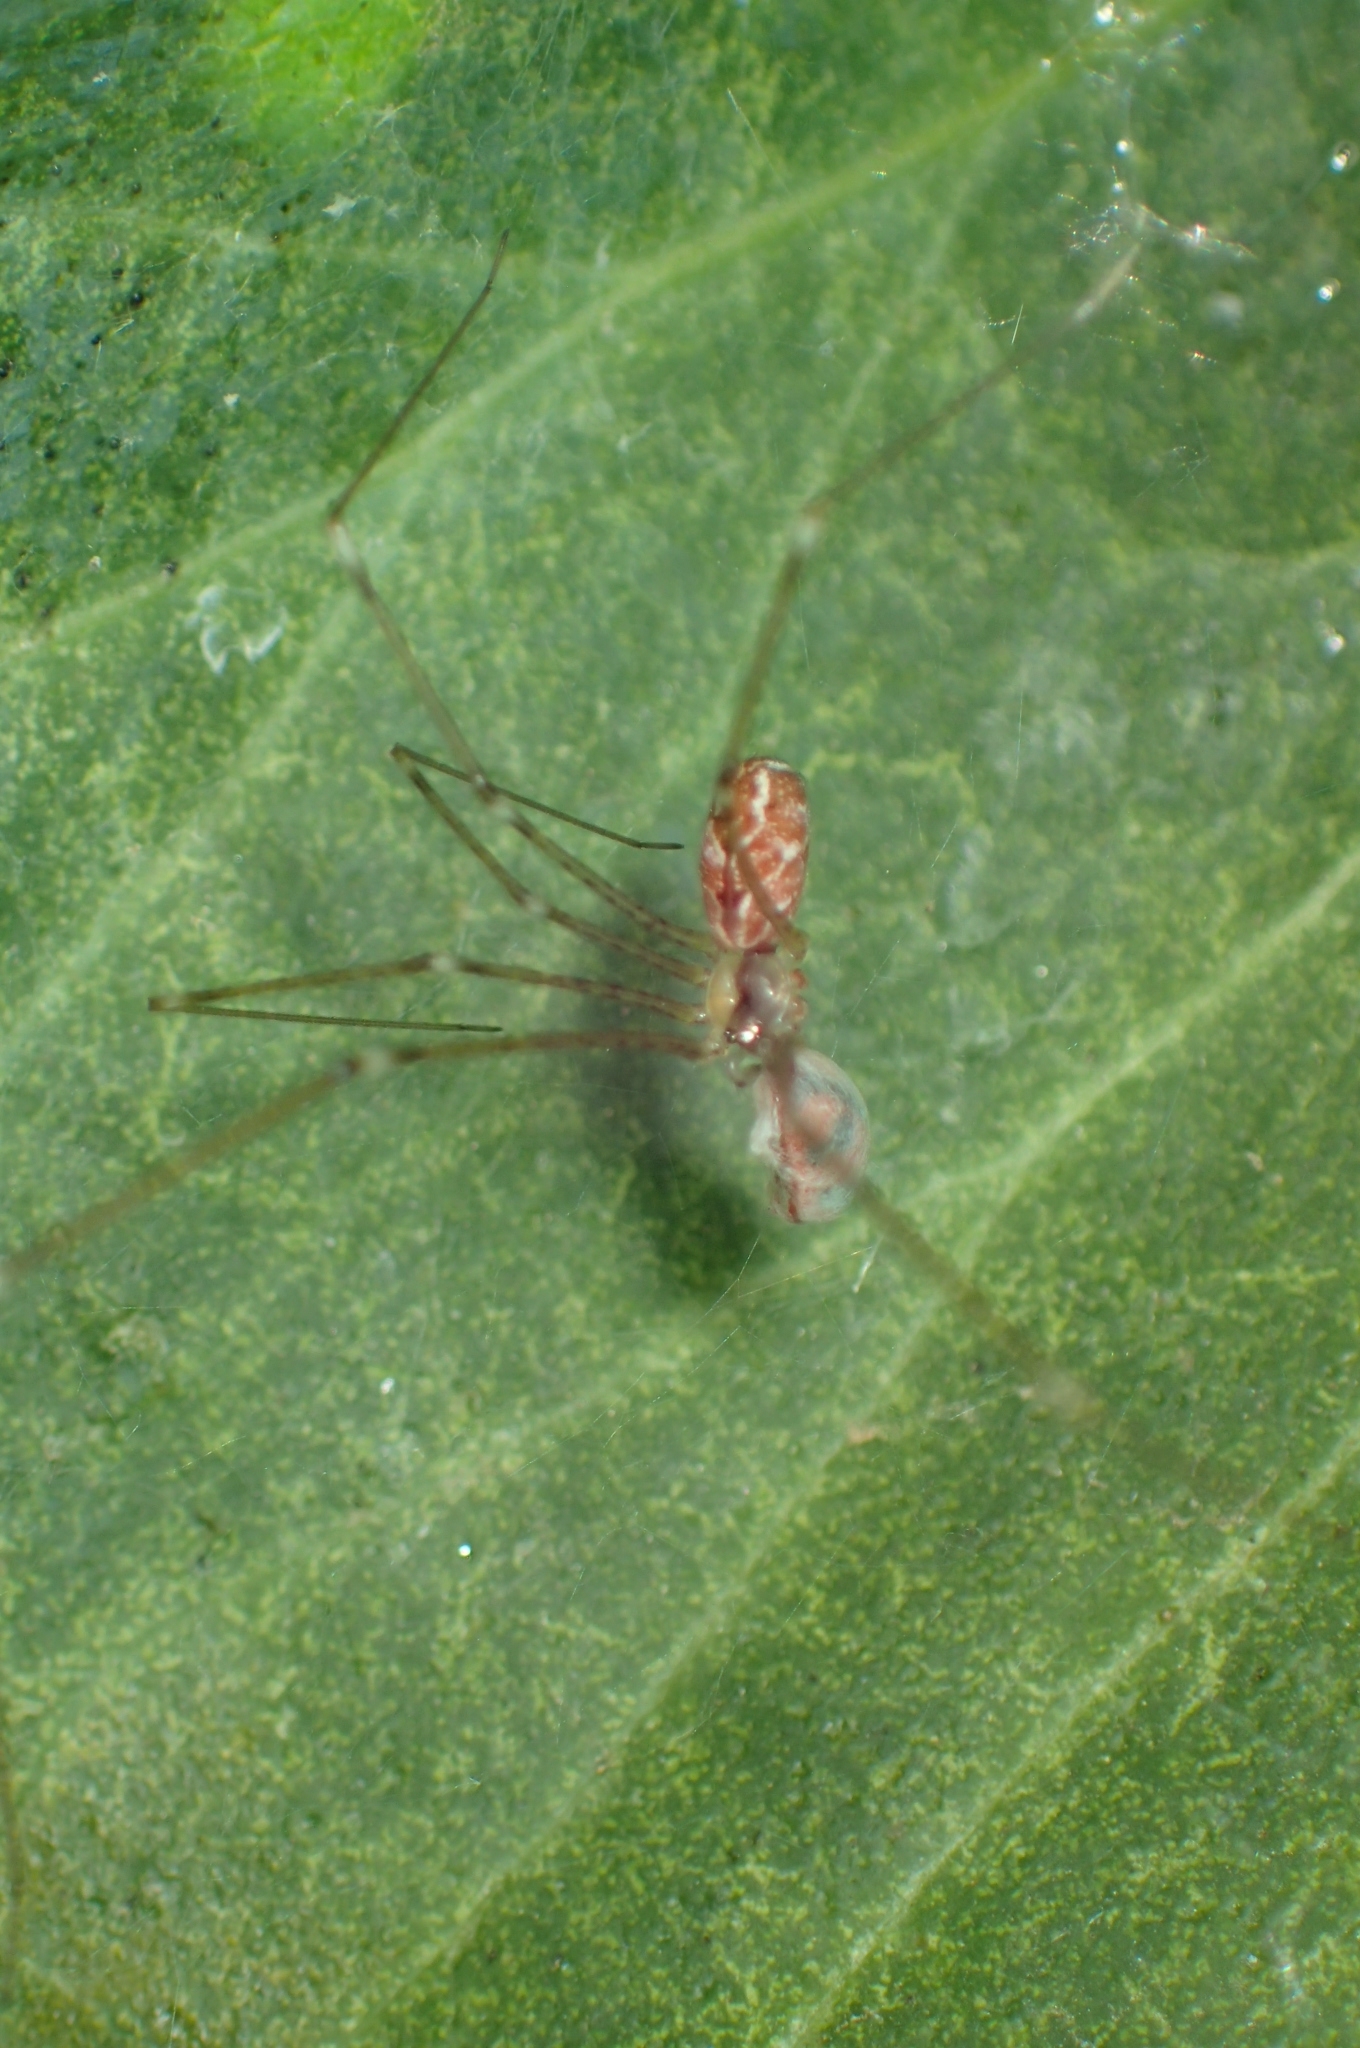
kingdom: Animalia
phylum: Arthropoda
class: Arachnida
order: Araneae
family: Pholcidae
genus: Holocnemus
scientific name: Holocnemus pluchei
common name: Marbled cellar spider
